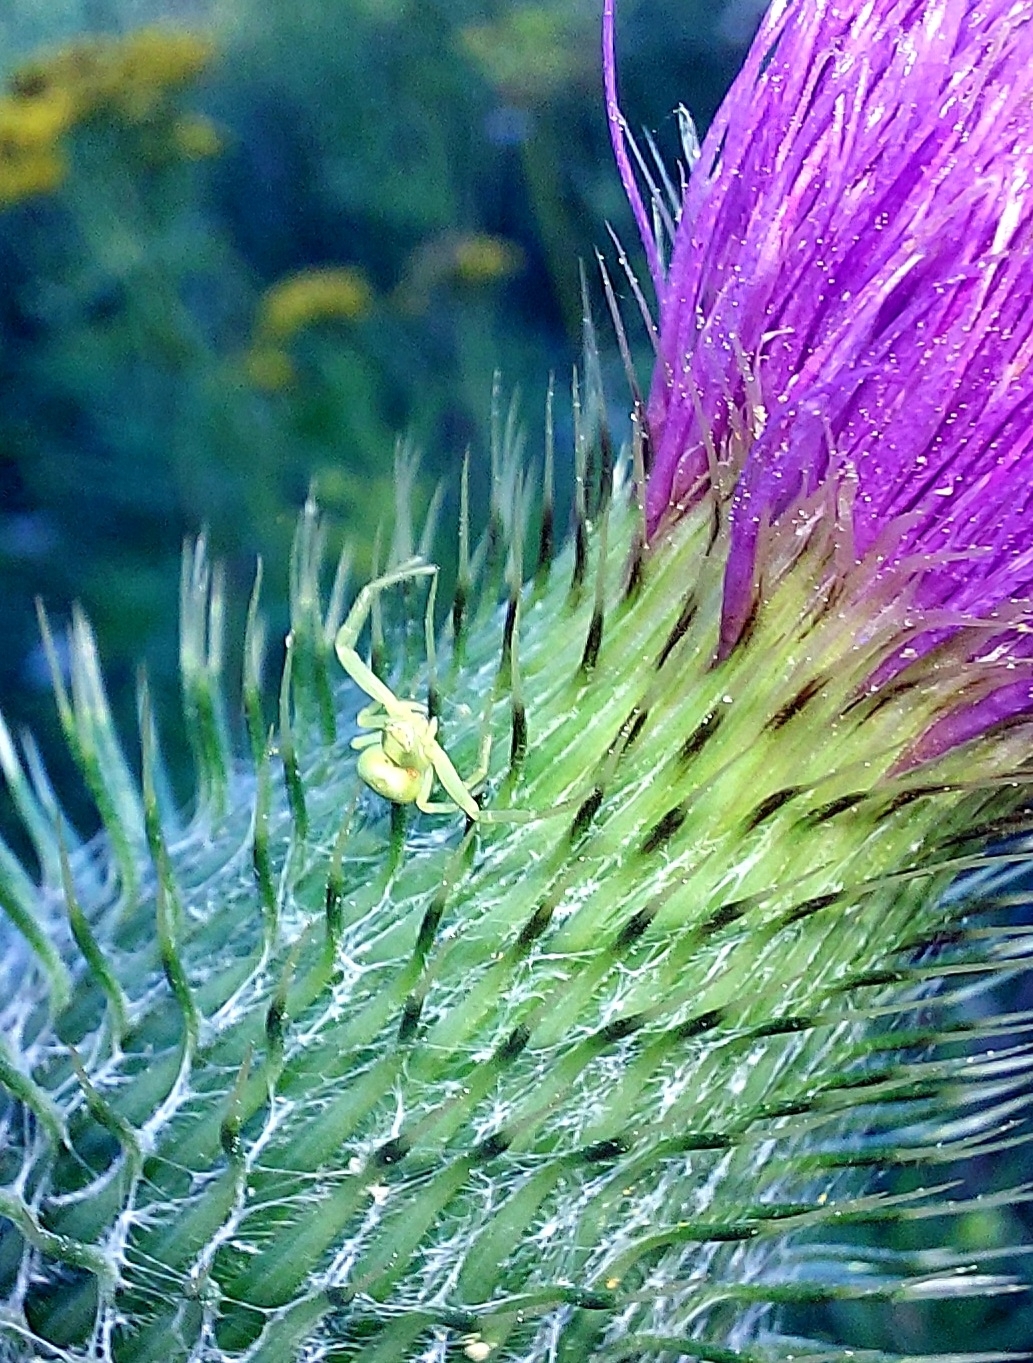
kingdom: Animalia
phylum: Arthropoda
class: Arachnida
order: Araneae
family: Thomisidae
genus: Misumena
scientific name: Misumena vatia
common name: Goldenrod crab spider
